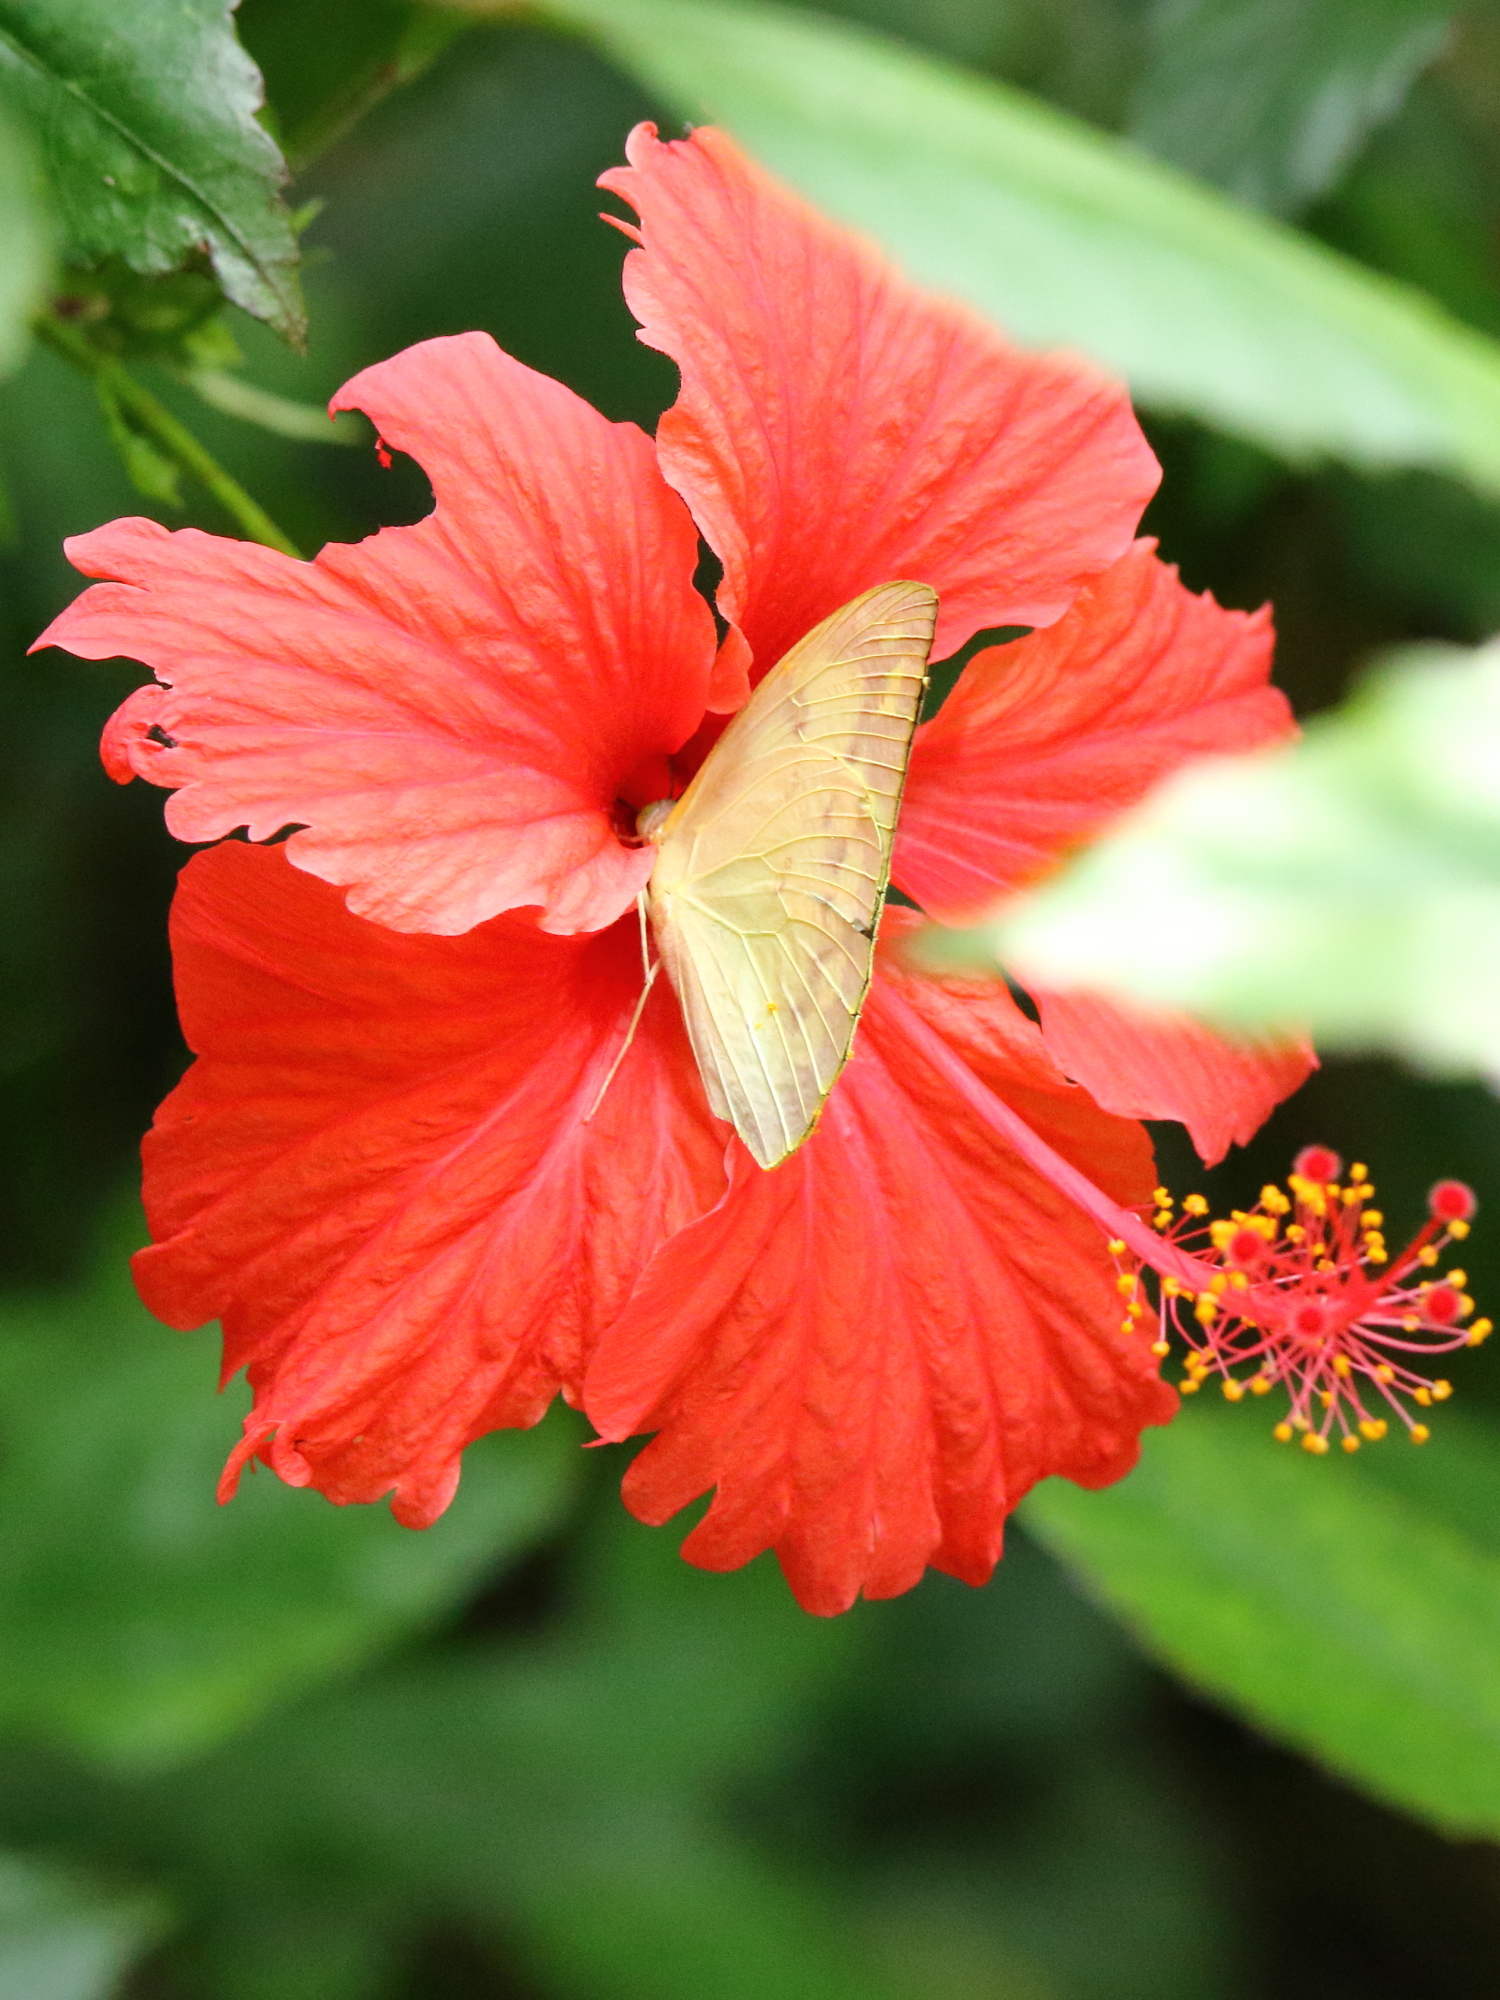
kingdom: Animalia
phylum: Arthropoda
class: Insecta
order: Lepidoptera
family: Pieridae
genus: Catopsilia
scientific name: Catopsilia pomona
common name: Common emigrant
